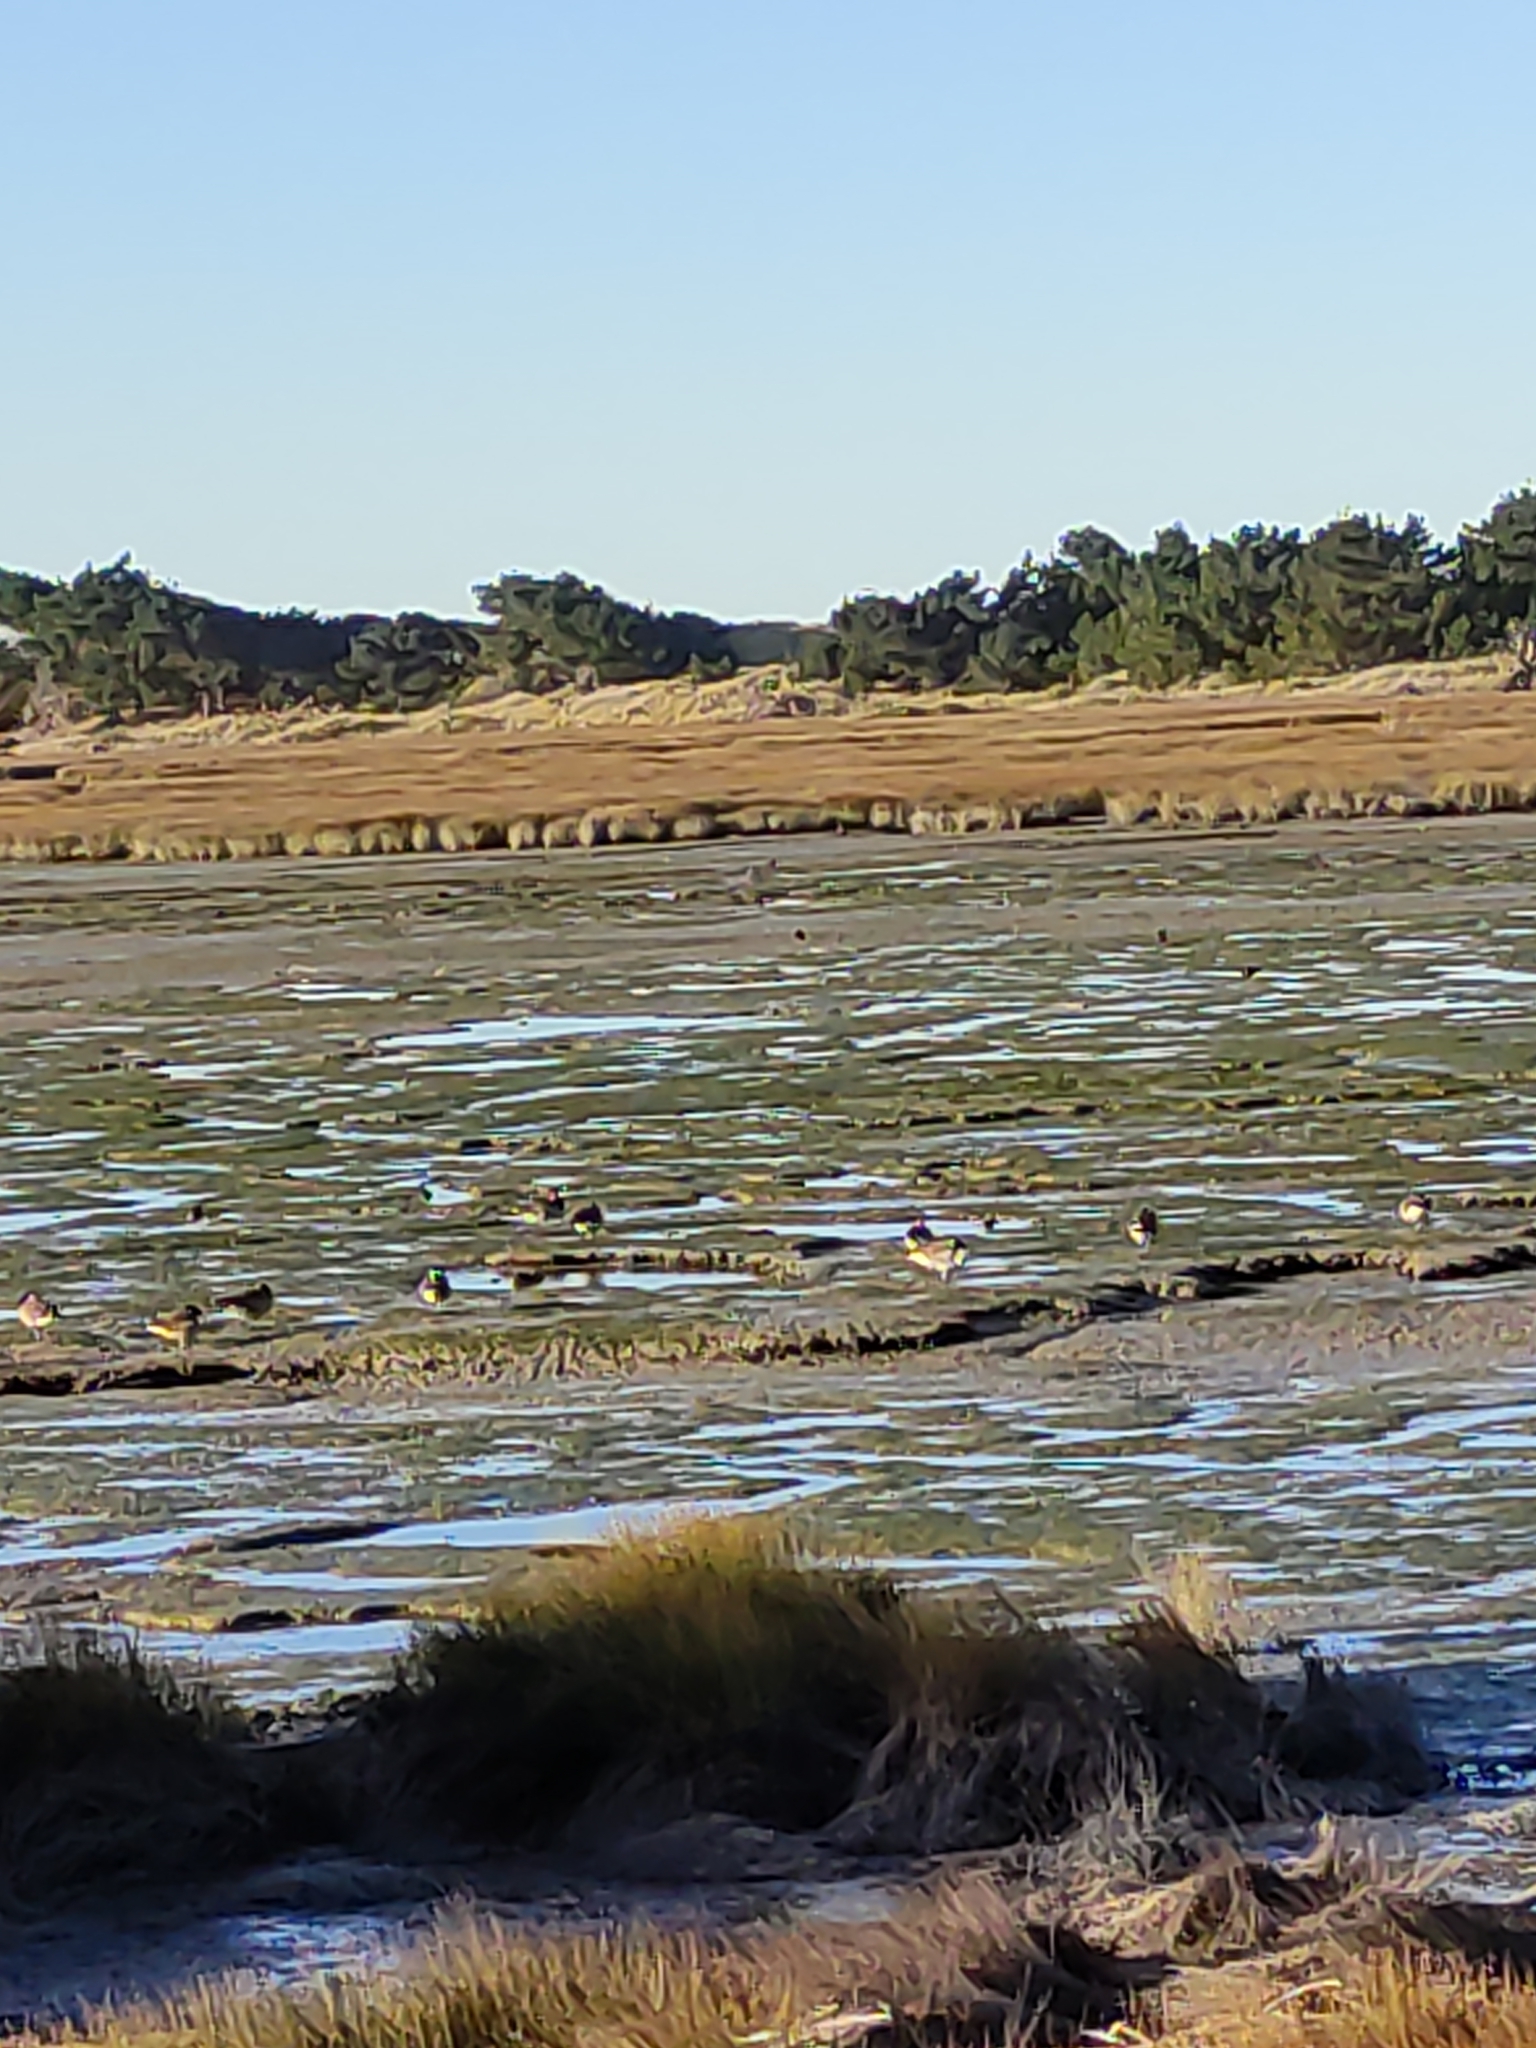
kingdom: Animalia
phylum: Chordata
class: Aves
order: Anseriformes
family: Anatidae
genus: Branta
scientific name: Branta canadensis
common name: Canada goose
